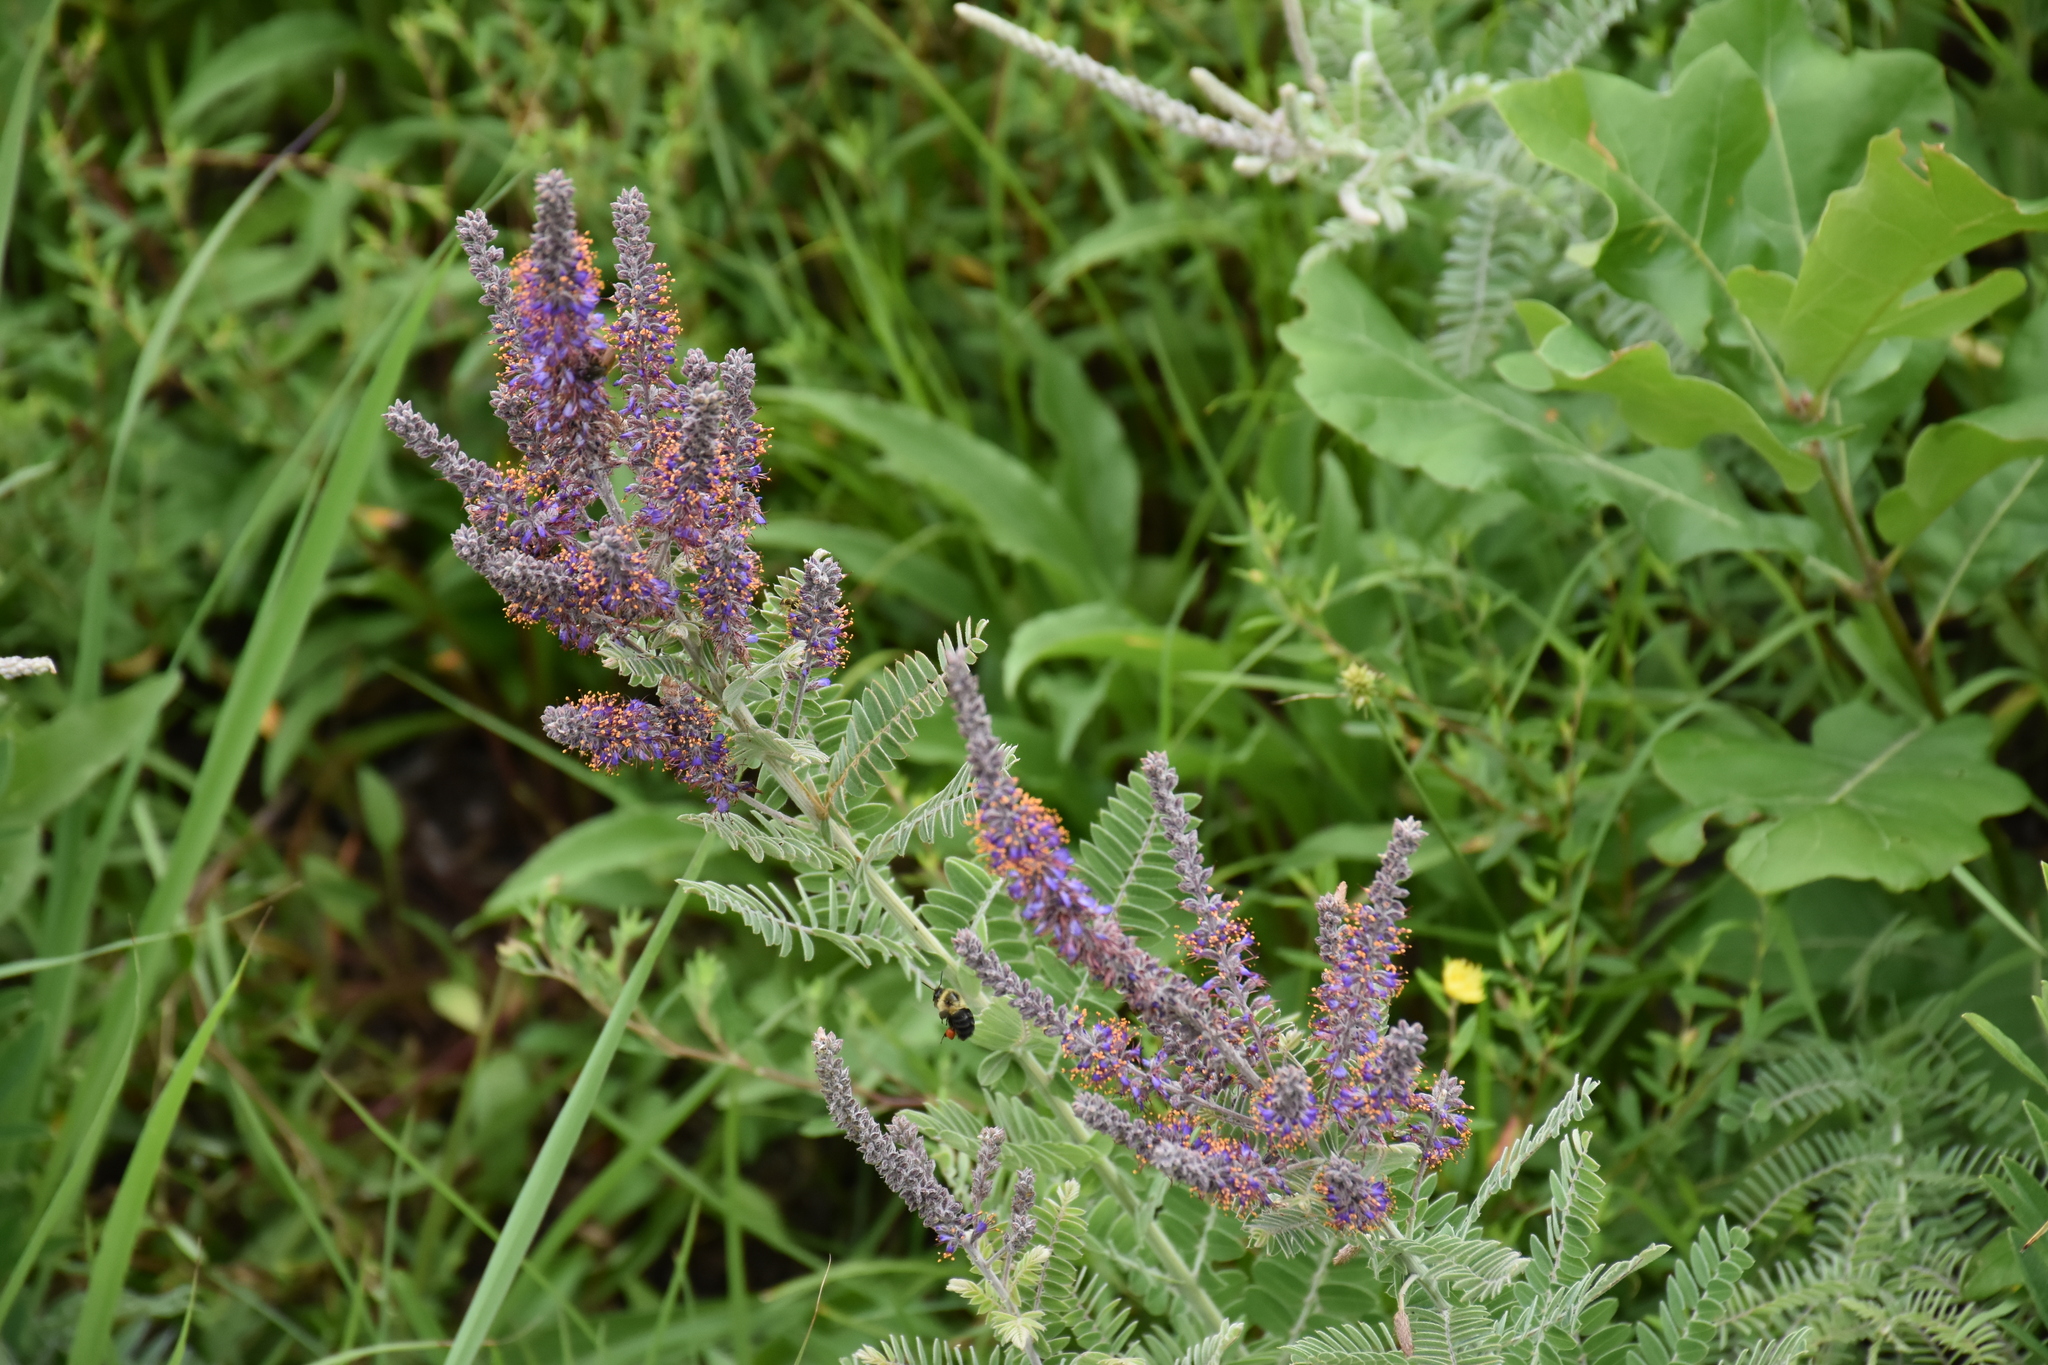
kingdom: Plantae
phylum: Tracheophyta
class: Magnoliopsida
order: Fabales
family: Fabaceae
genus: Amorpha
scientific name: Amorpha canescens
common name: Leadplant
